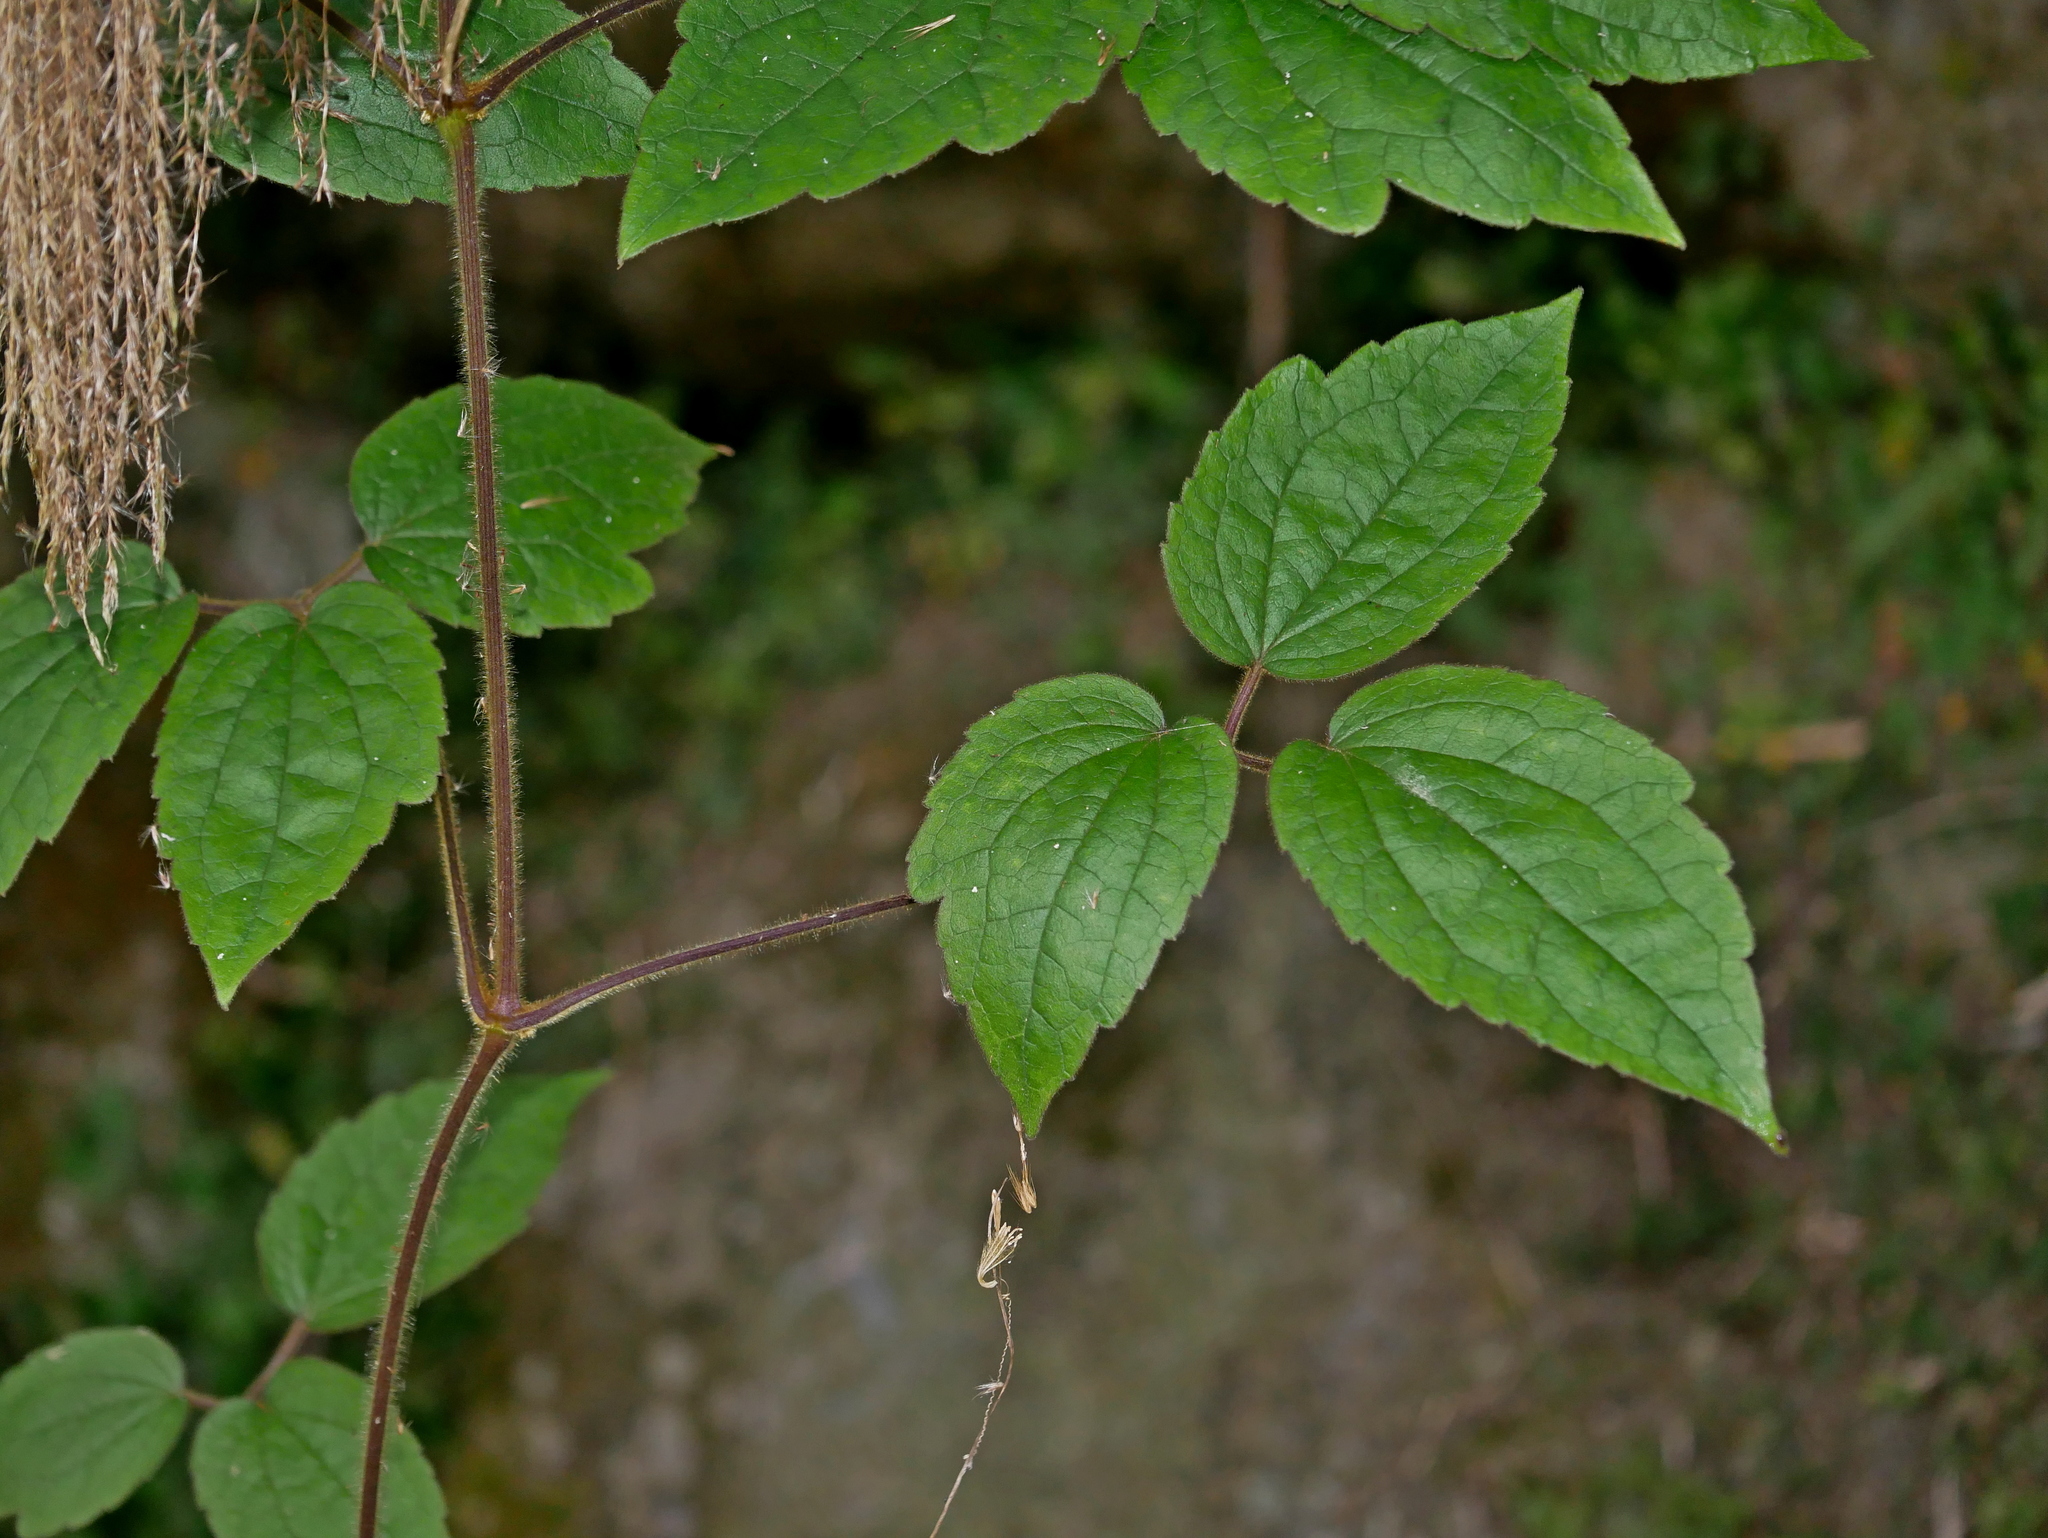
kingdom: Plantae
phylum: Tracheophyta
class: Magnoliopsida
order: Ranunculales
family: Ranunculaceae
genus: Clematis
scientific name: Clematis leschenaultiana
